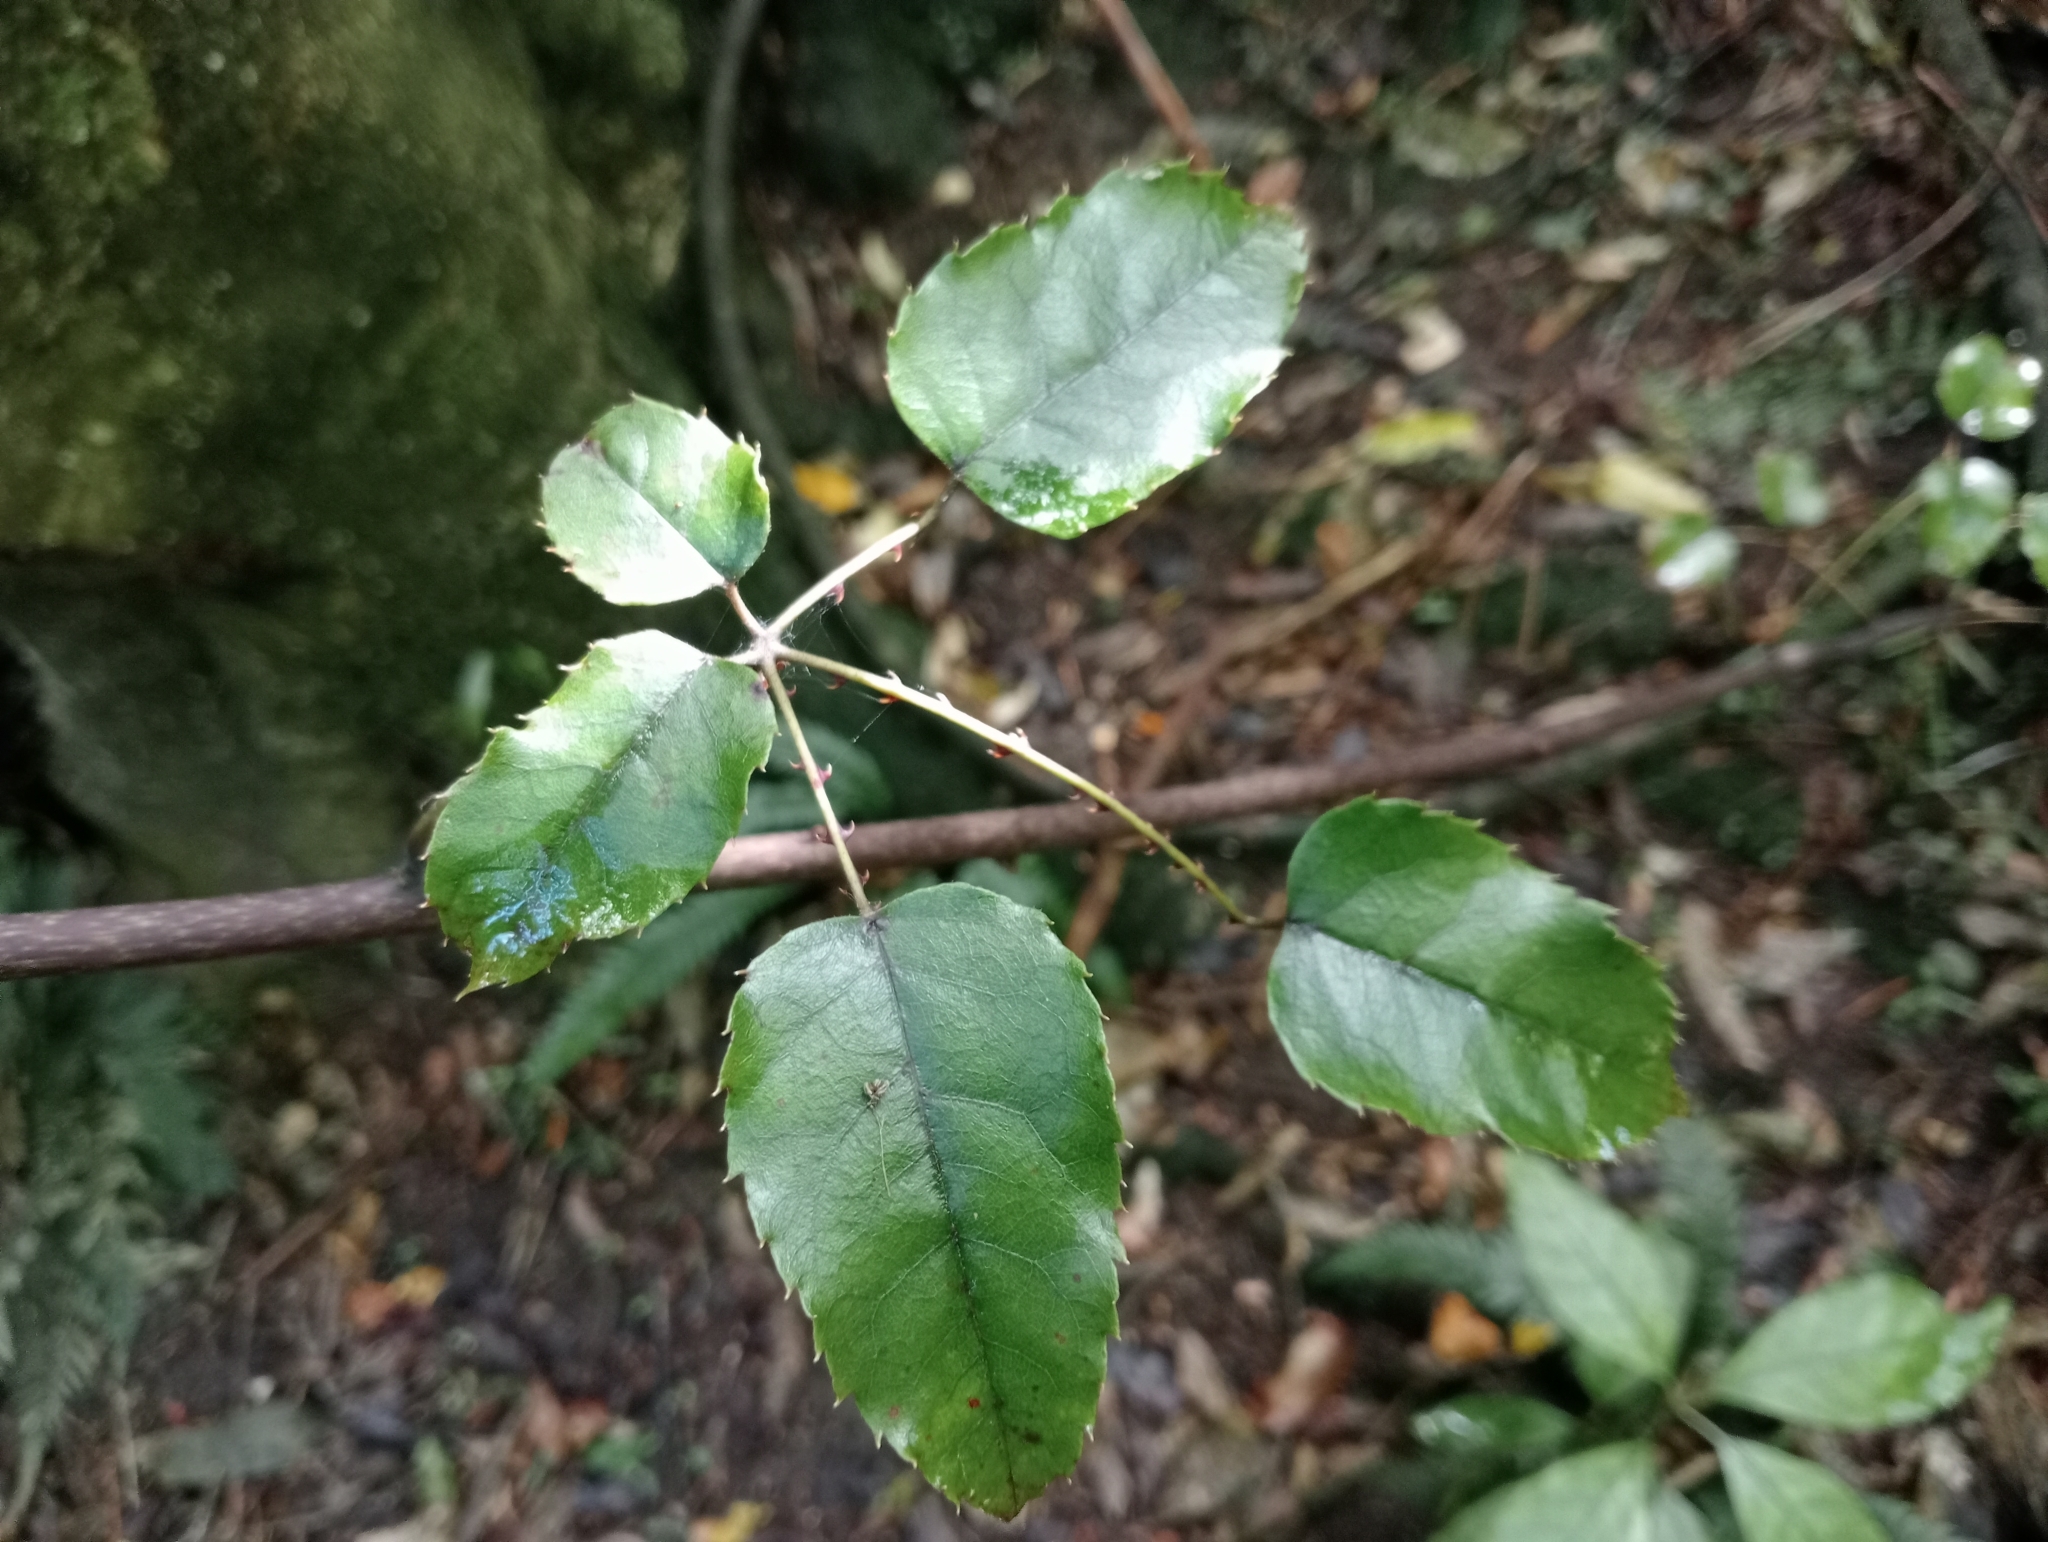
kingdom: Plantae
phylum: Tracheophyta
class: Magnoliopsida
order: Rosales
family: Rosaceae
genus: Rubus
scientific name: Rubus cissoides
